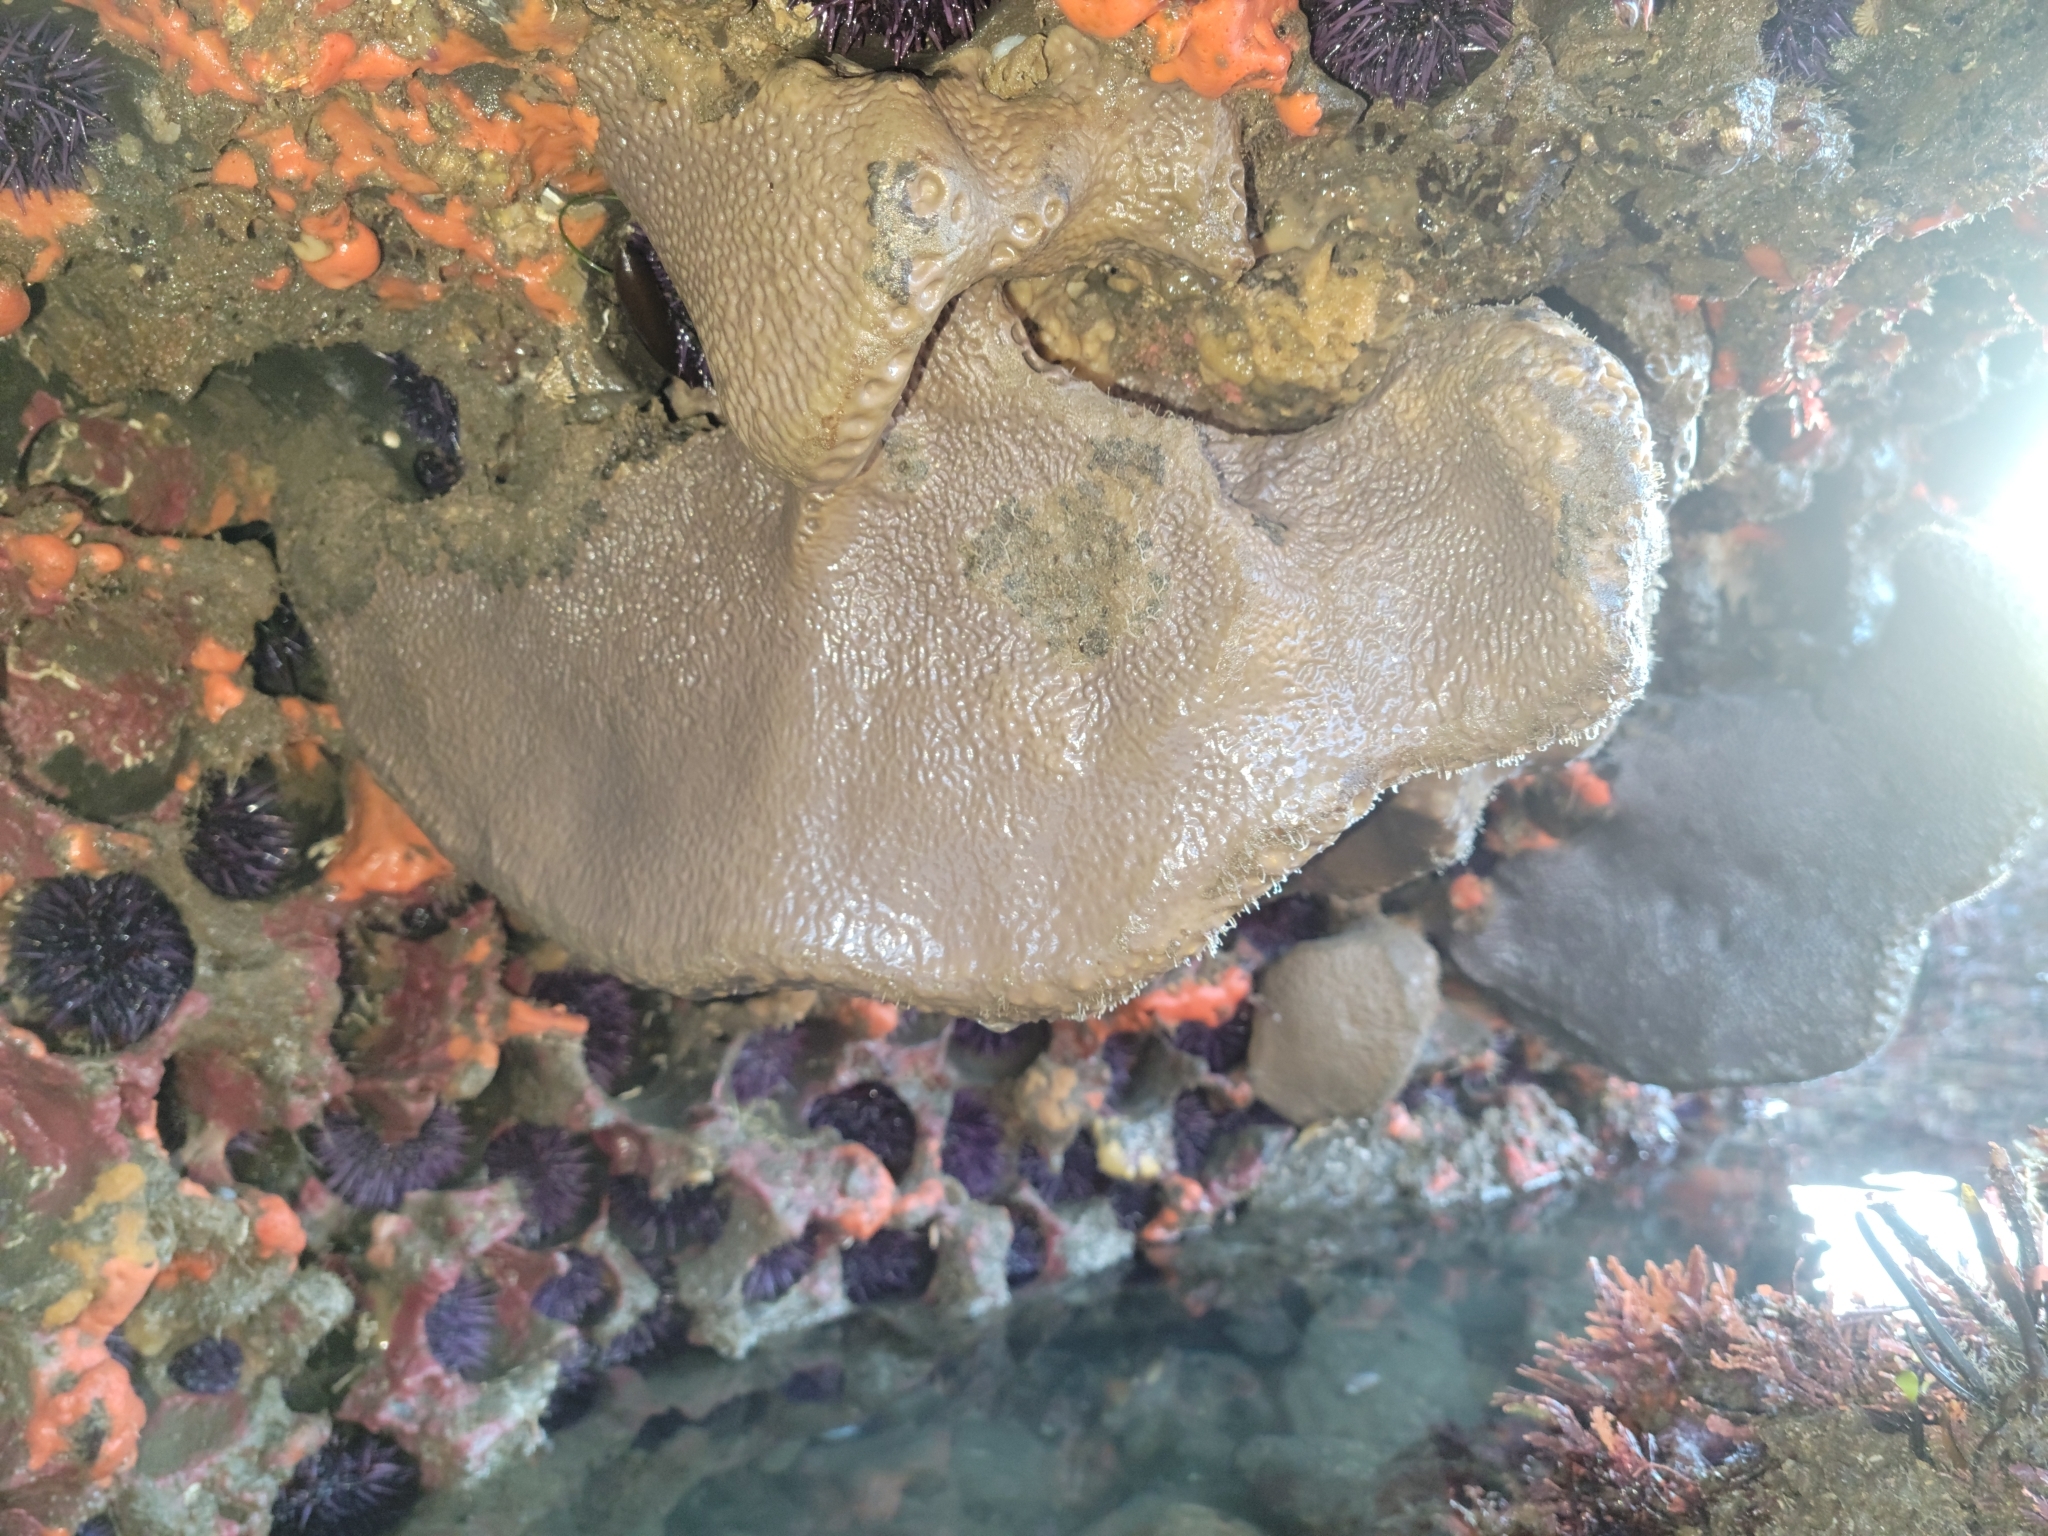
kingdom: Animalia
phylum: Porifera
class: Demospongiae
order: Clionaida
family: Clionaidae
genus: Spheciospongia
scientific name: Spheciospongia confoederata
